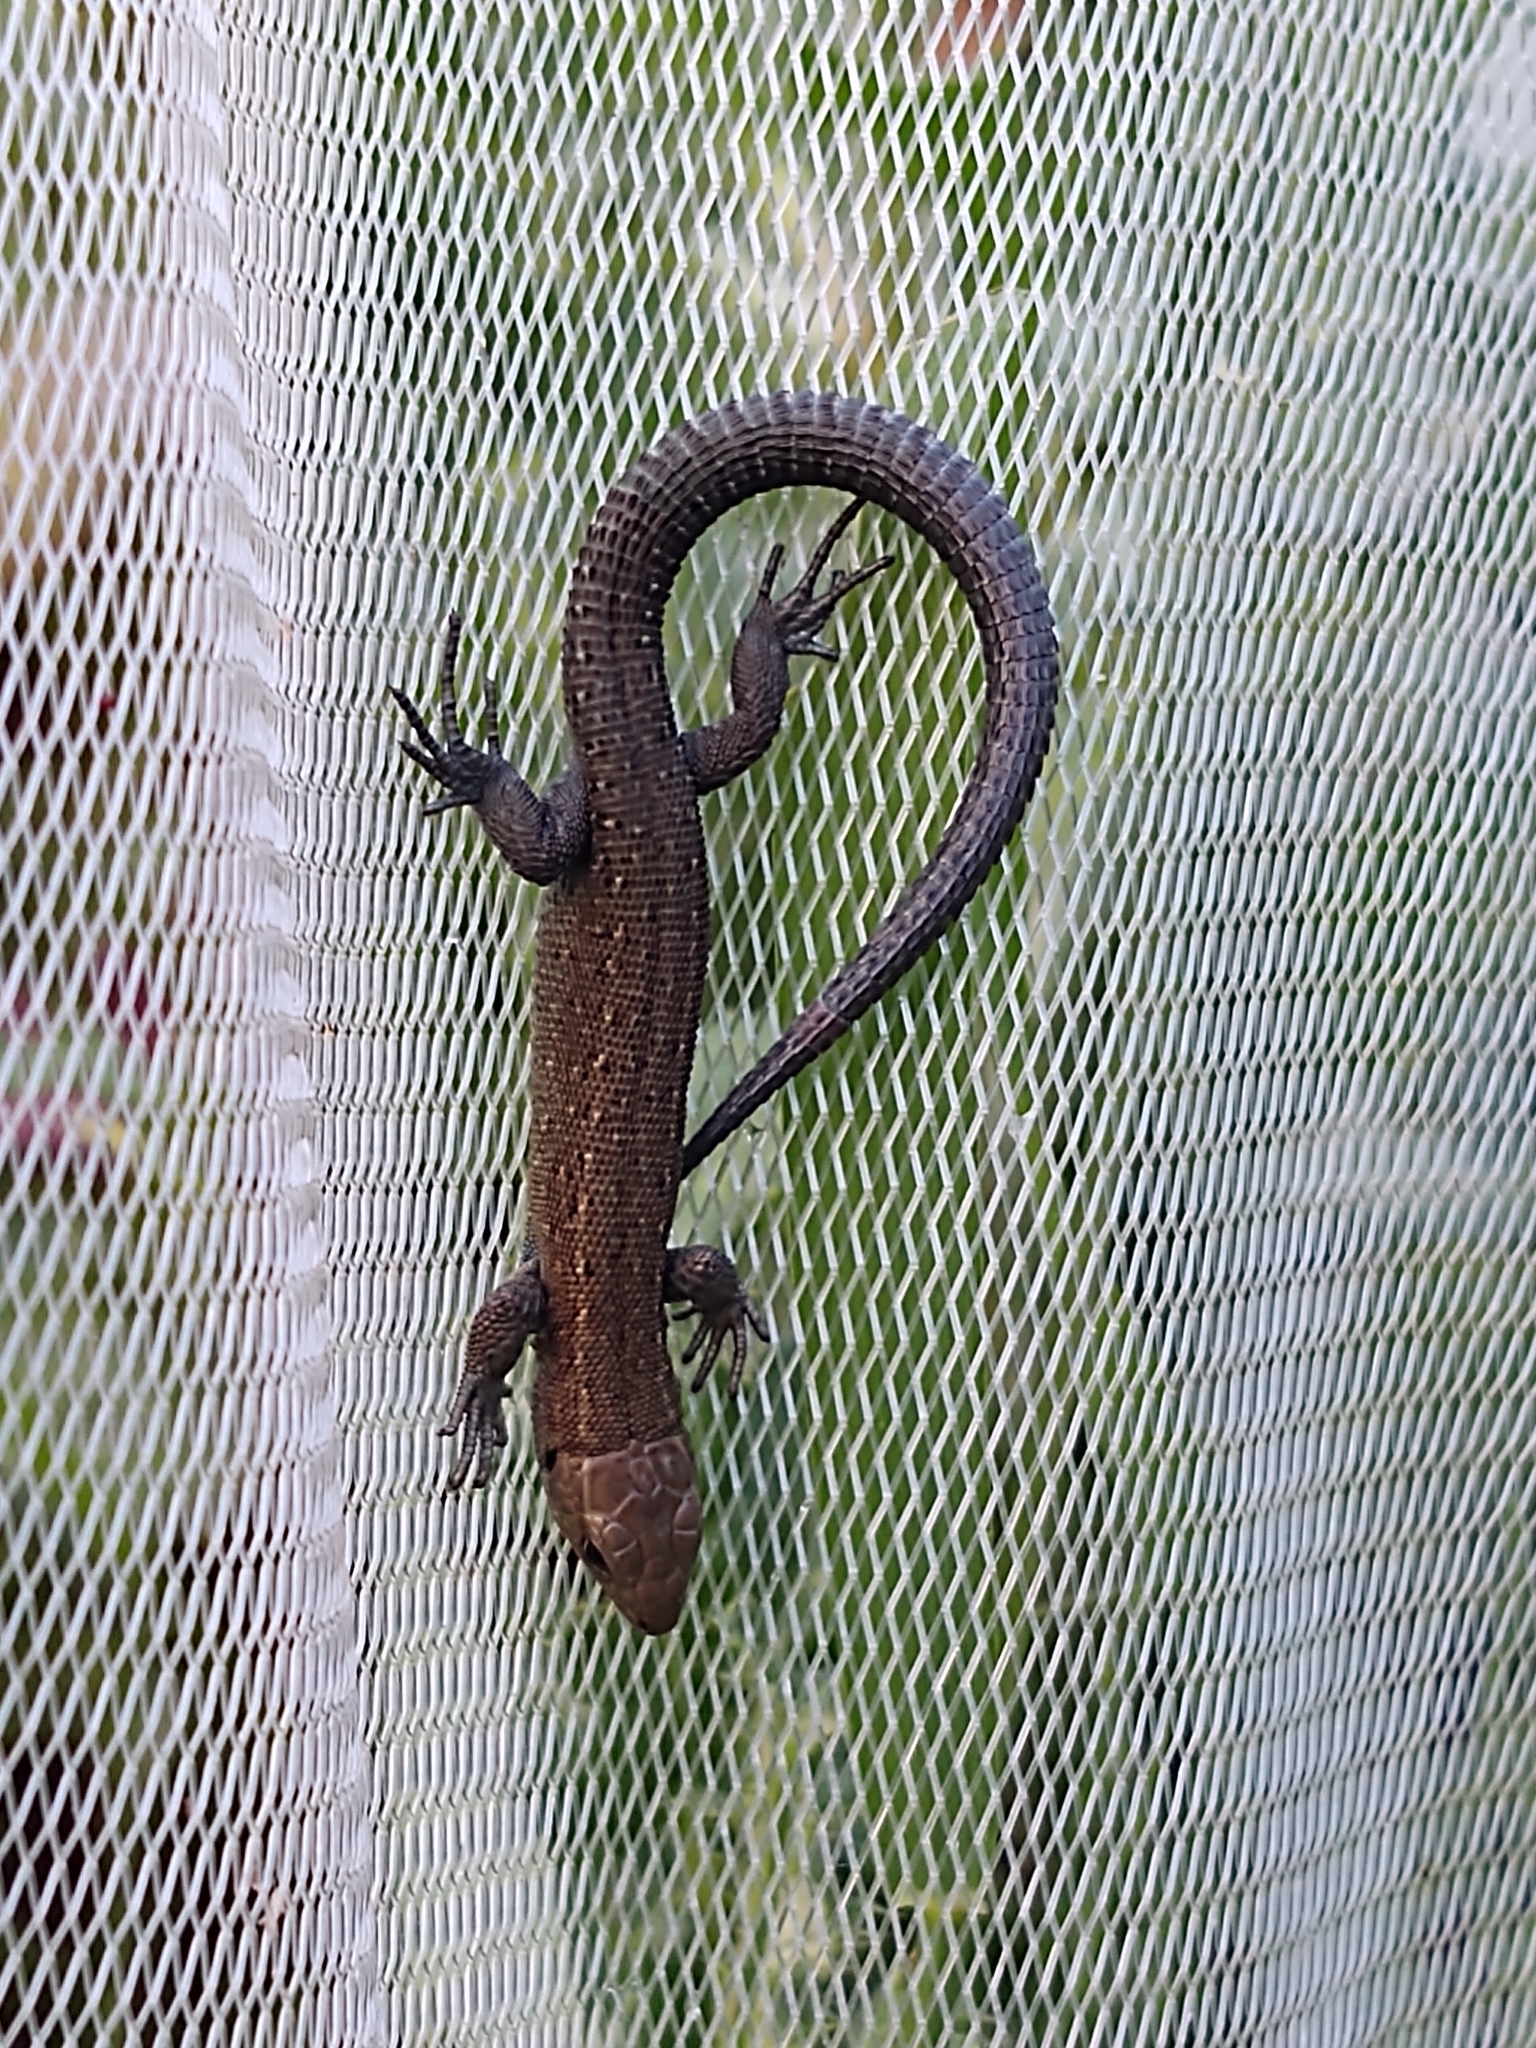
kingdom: Animalia
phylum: Chordata
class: Squamata
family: Lacertidae
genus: Zootoca
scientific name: Zootoca vivipara
